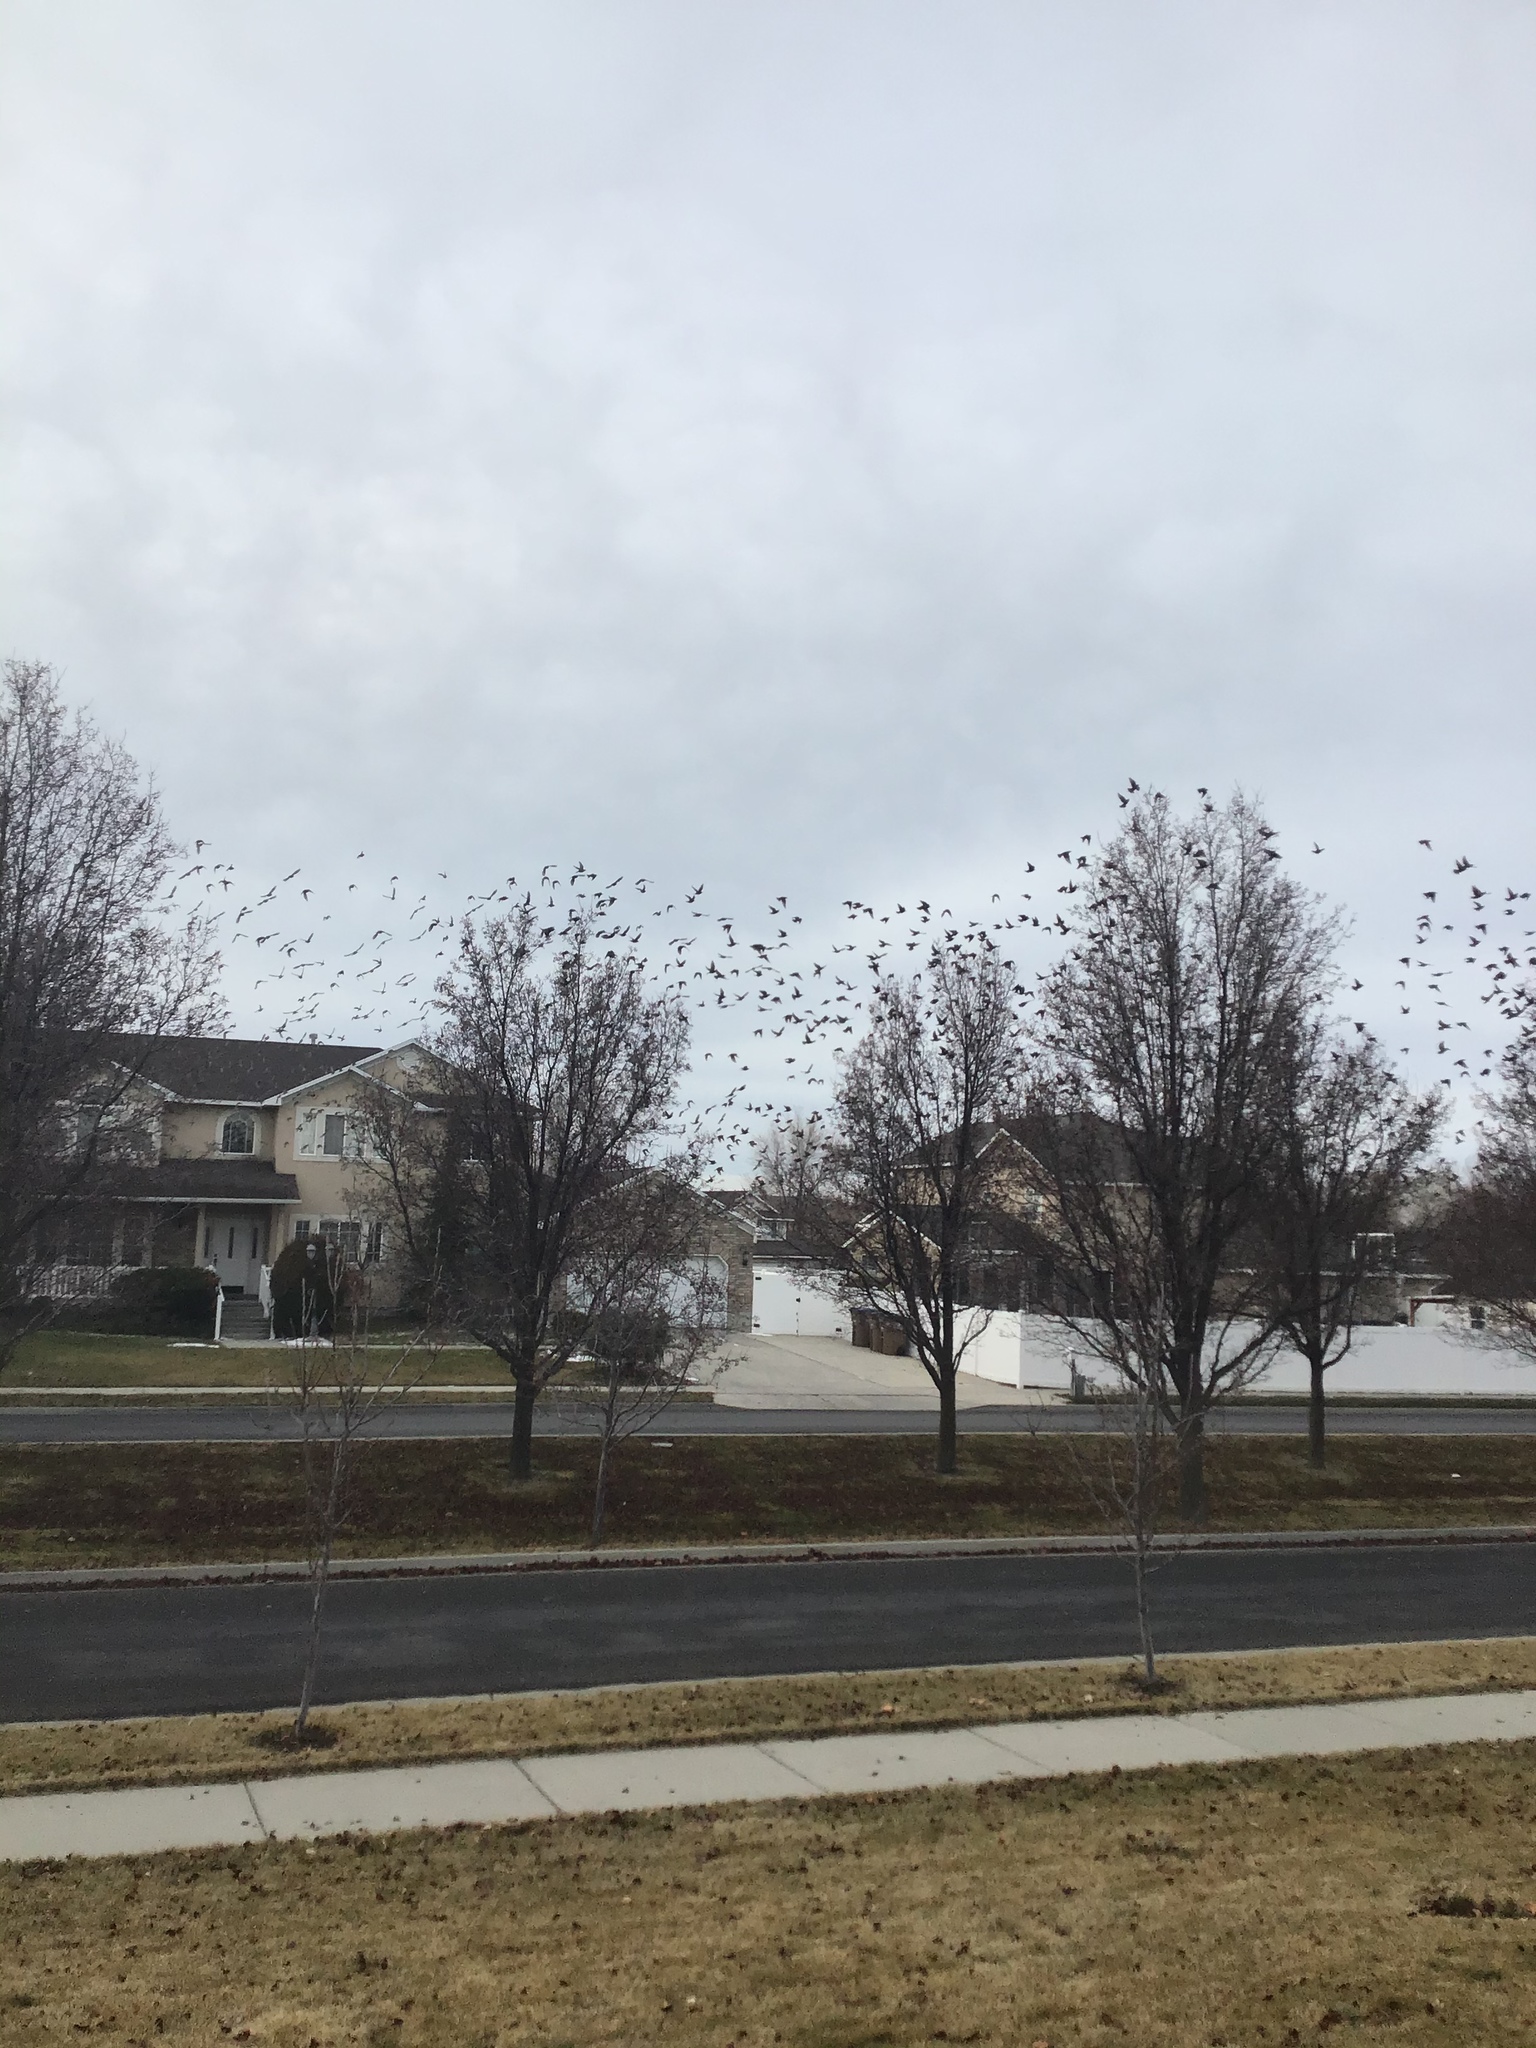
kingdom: Animalia
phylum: Chordata
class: Aves
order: Passeriformes
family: Sturnidae
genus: Sturnus
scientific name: Sturnus vulgaris
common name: Common starling
